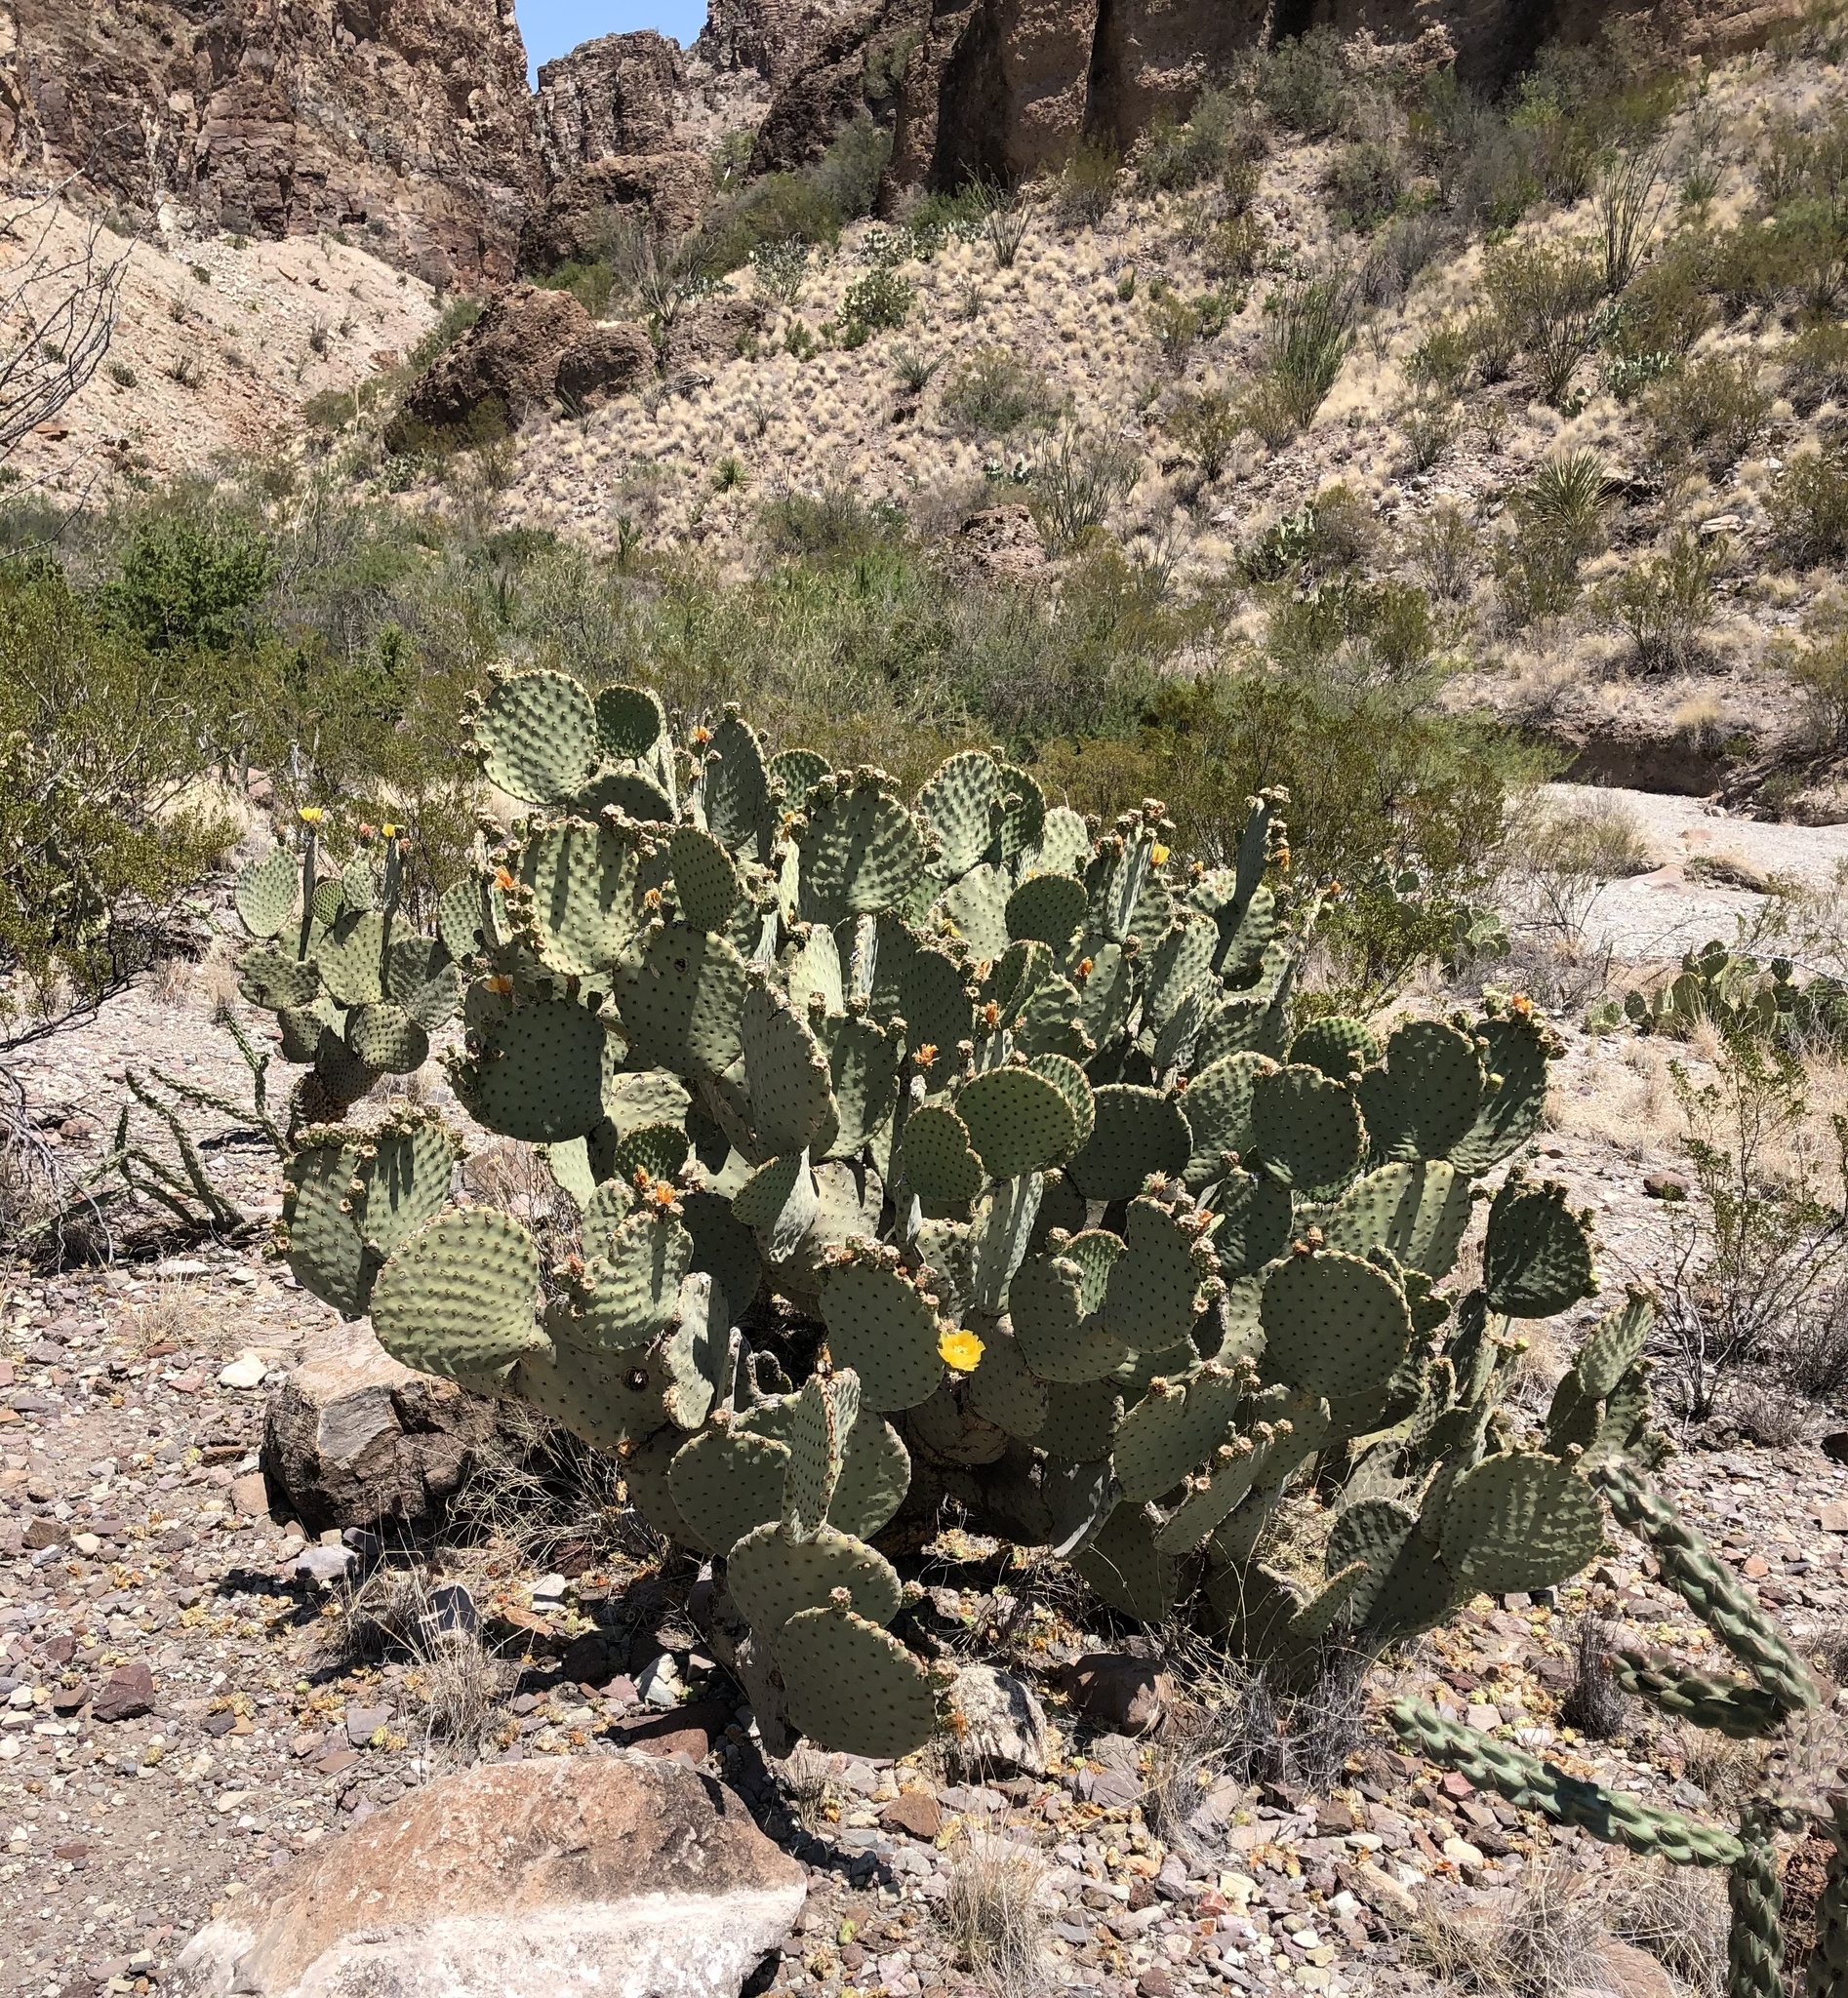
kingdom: Plantae
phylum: Tracheophyta
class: Magnoliopsida
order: Caryophyllales
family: Cactaceae
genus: Opuntia
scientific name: Opuntia rufida
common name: Blind pricklypear
